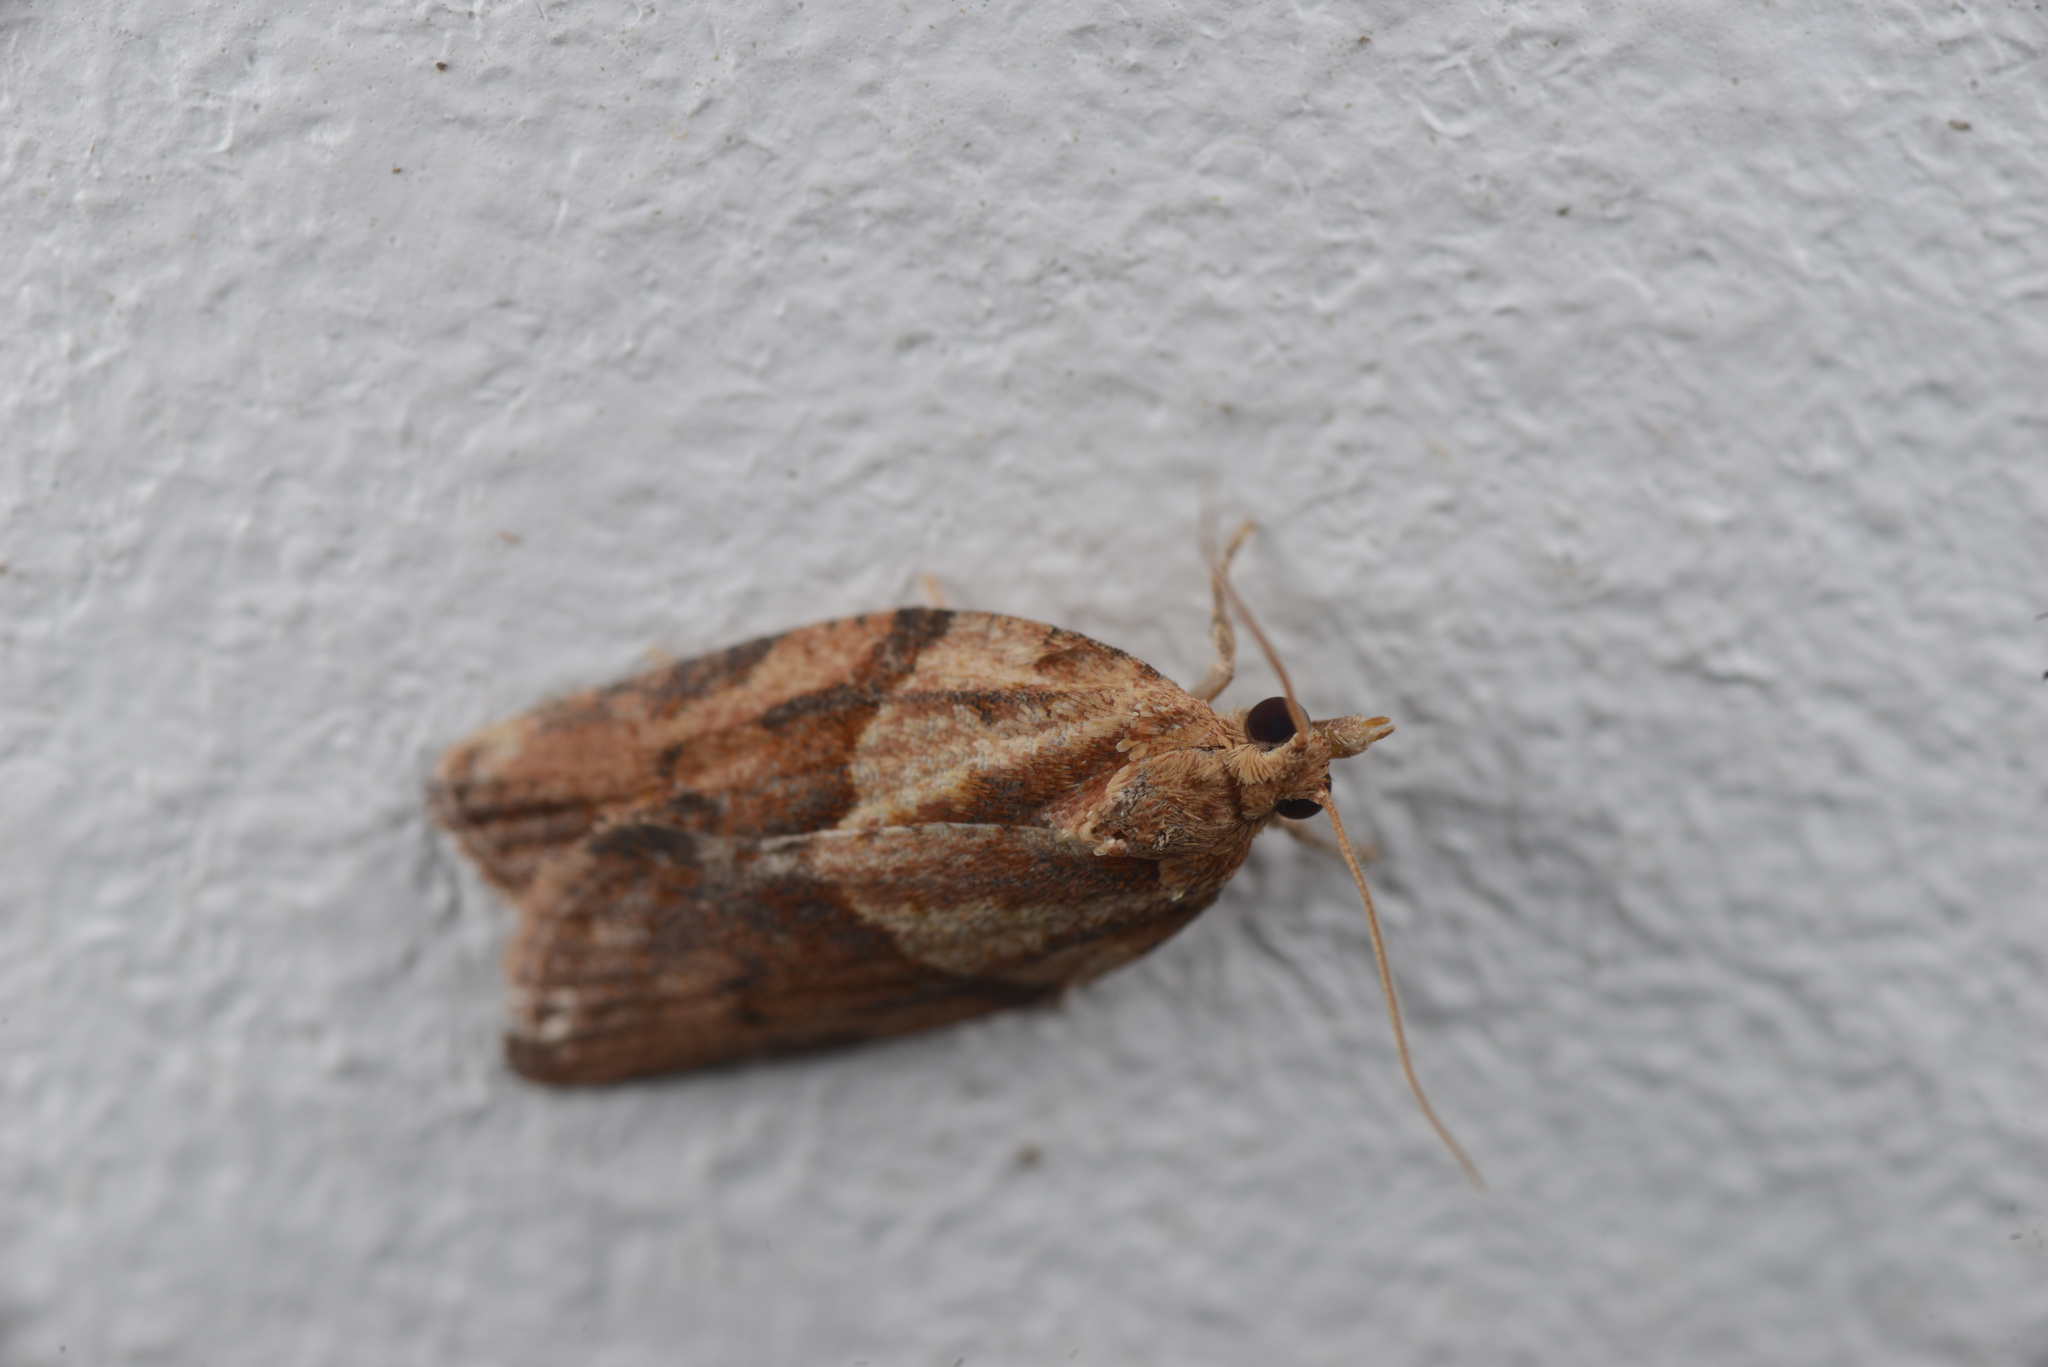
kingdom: Animalia
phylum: Arthropoda
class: Insecta
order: Lepidoptera
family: Tortricidae
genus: Epiphyas
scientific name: Epiphyas postvittana
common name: Light brown apple moth
